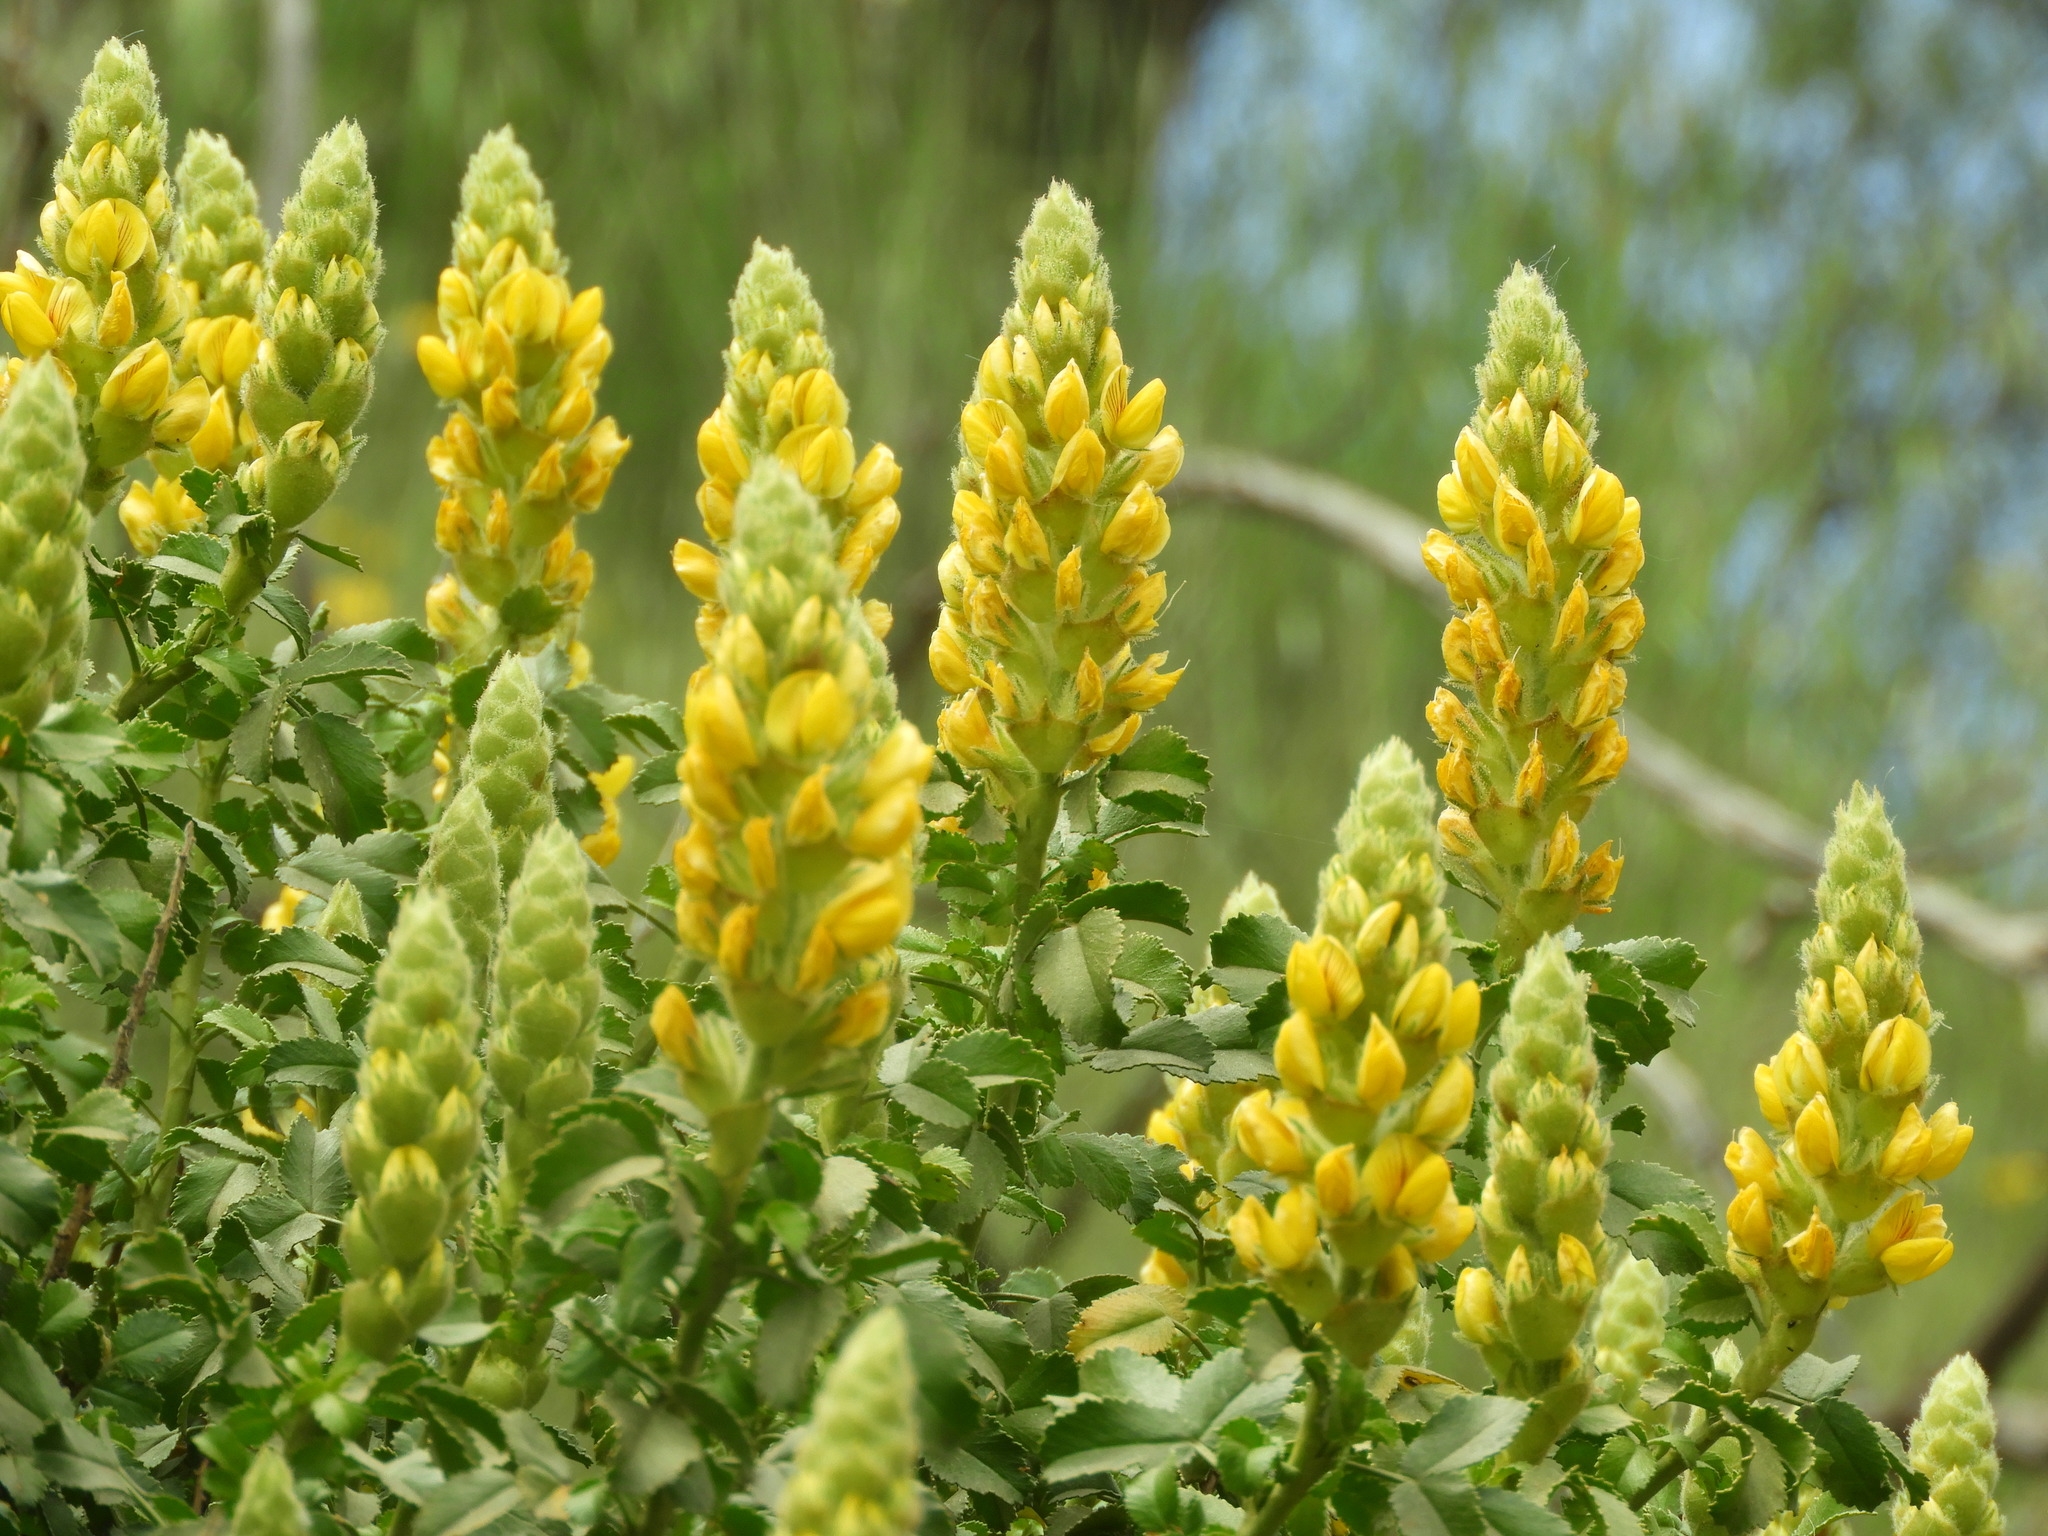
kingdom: Plantae
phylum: Tracheophyta
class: Magnoliopsida
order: Fabales
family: Fabaceae
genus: Ononis
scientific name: Ononis speciosa
